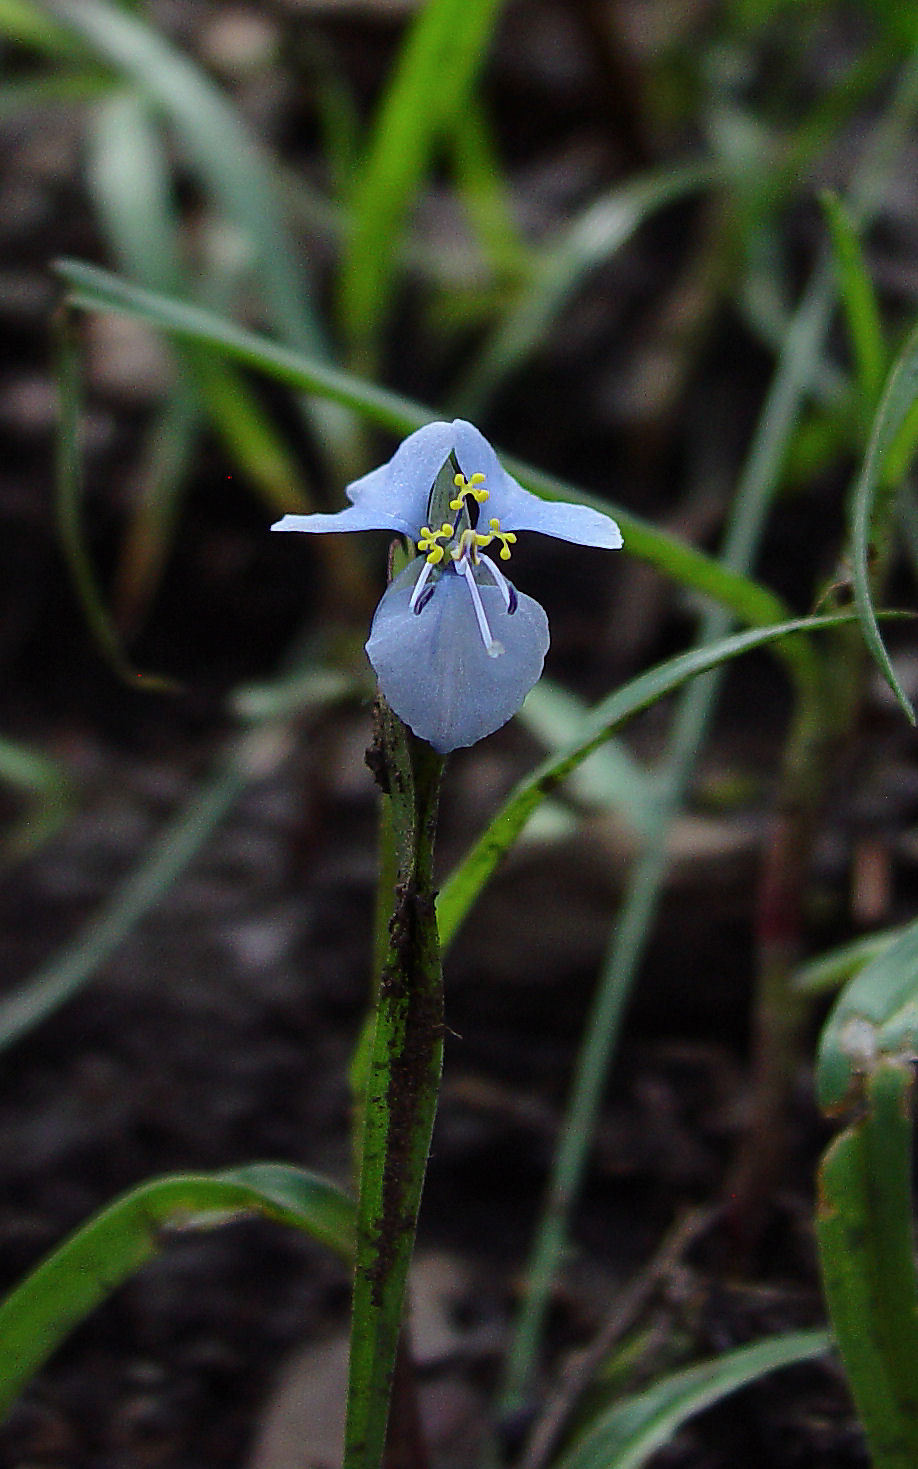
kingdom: Plantae
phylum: Tracheophyta
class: Liliopsida
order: Commelinales
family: Commelinaceae
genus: Commelina
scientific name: Commelina dianthifolia
